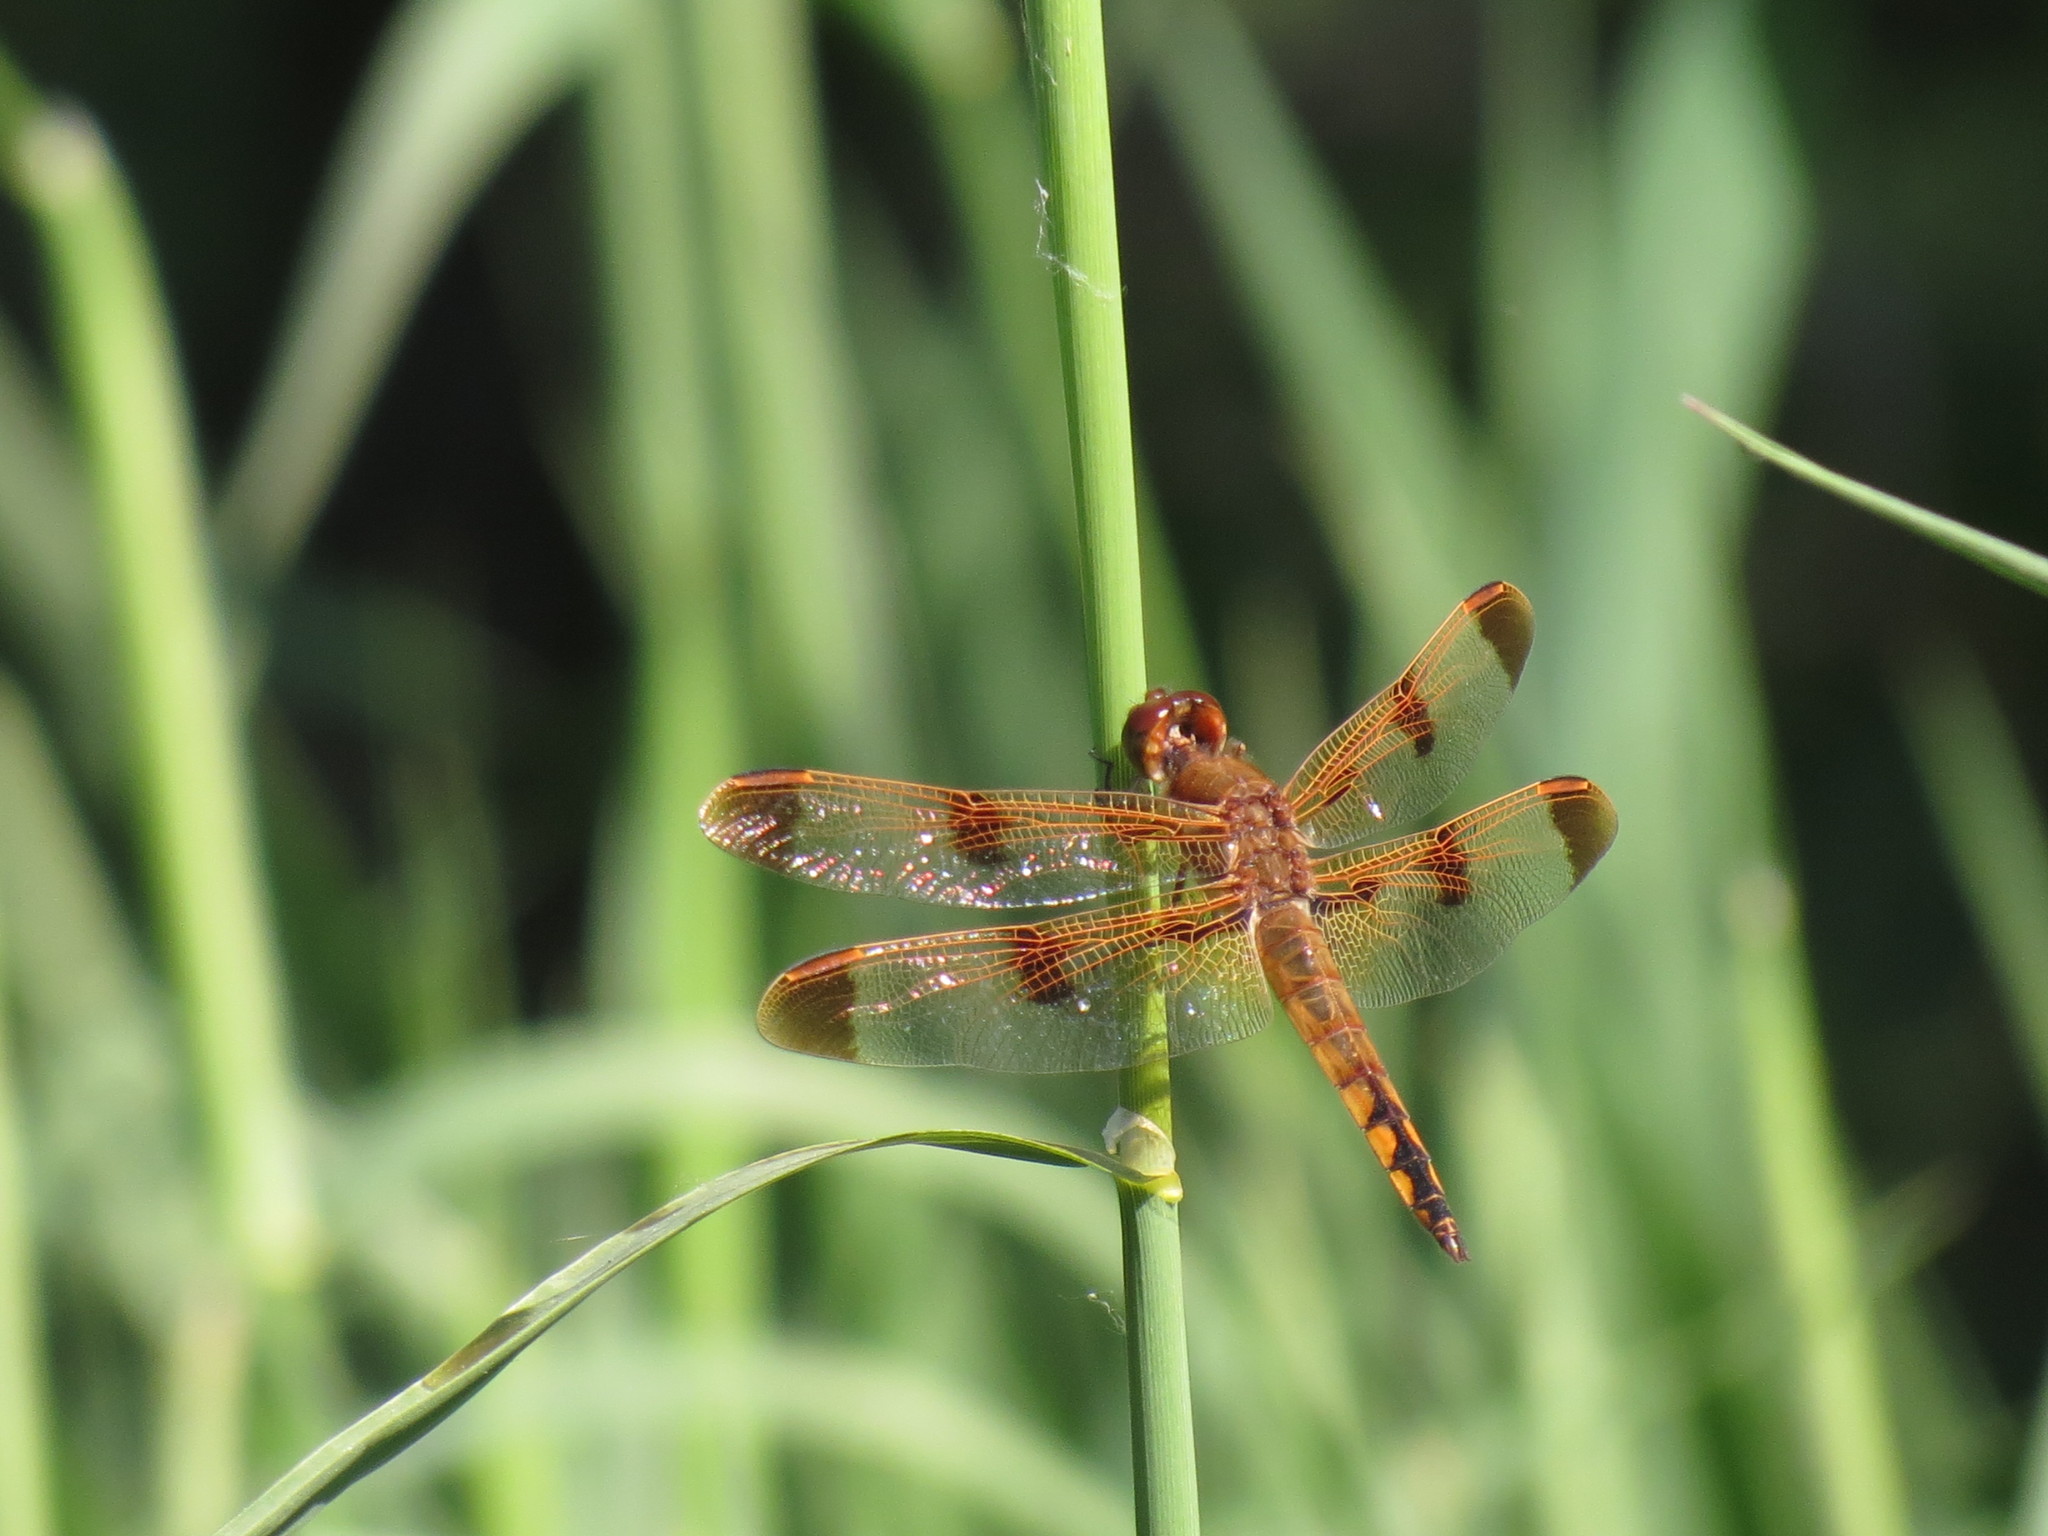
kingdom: Animalia
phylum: Arthropoda
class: Insecta
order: Odonata
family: Libellulidae
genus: Libellula
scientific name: Libellula semifasciata
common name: Painted skimmer
